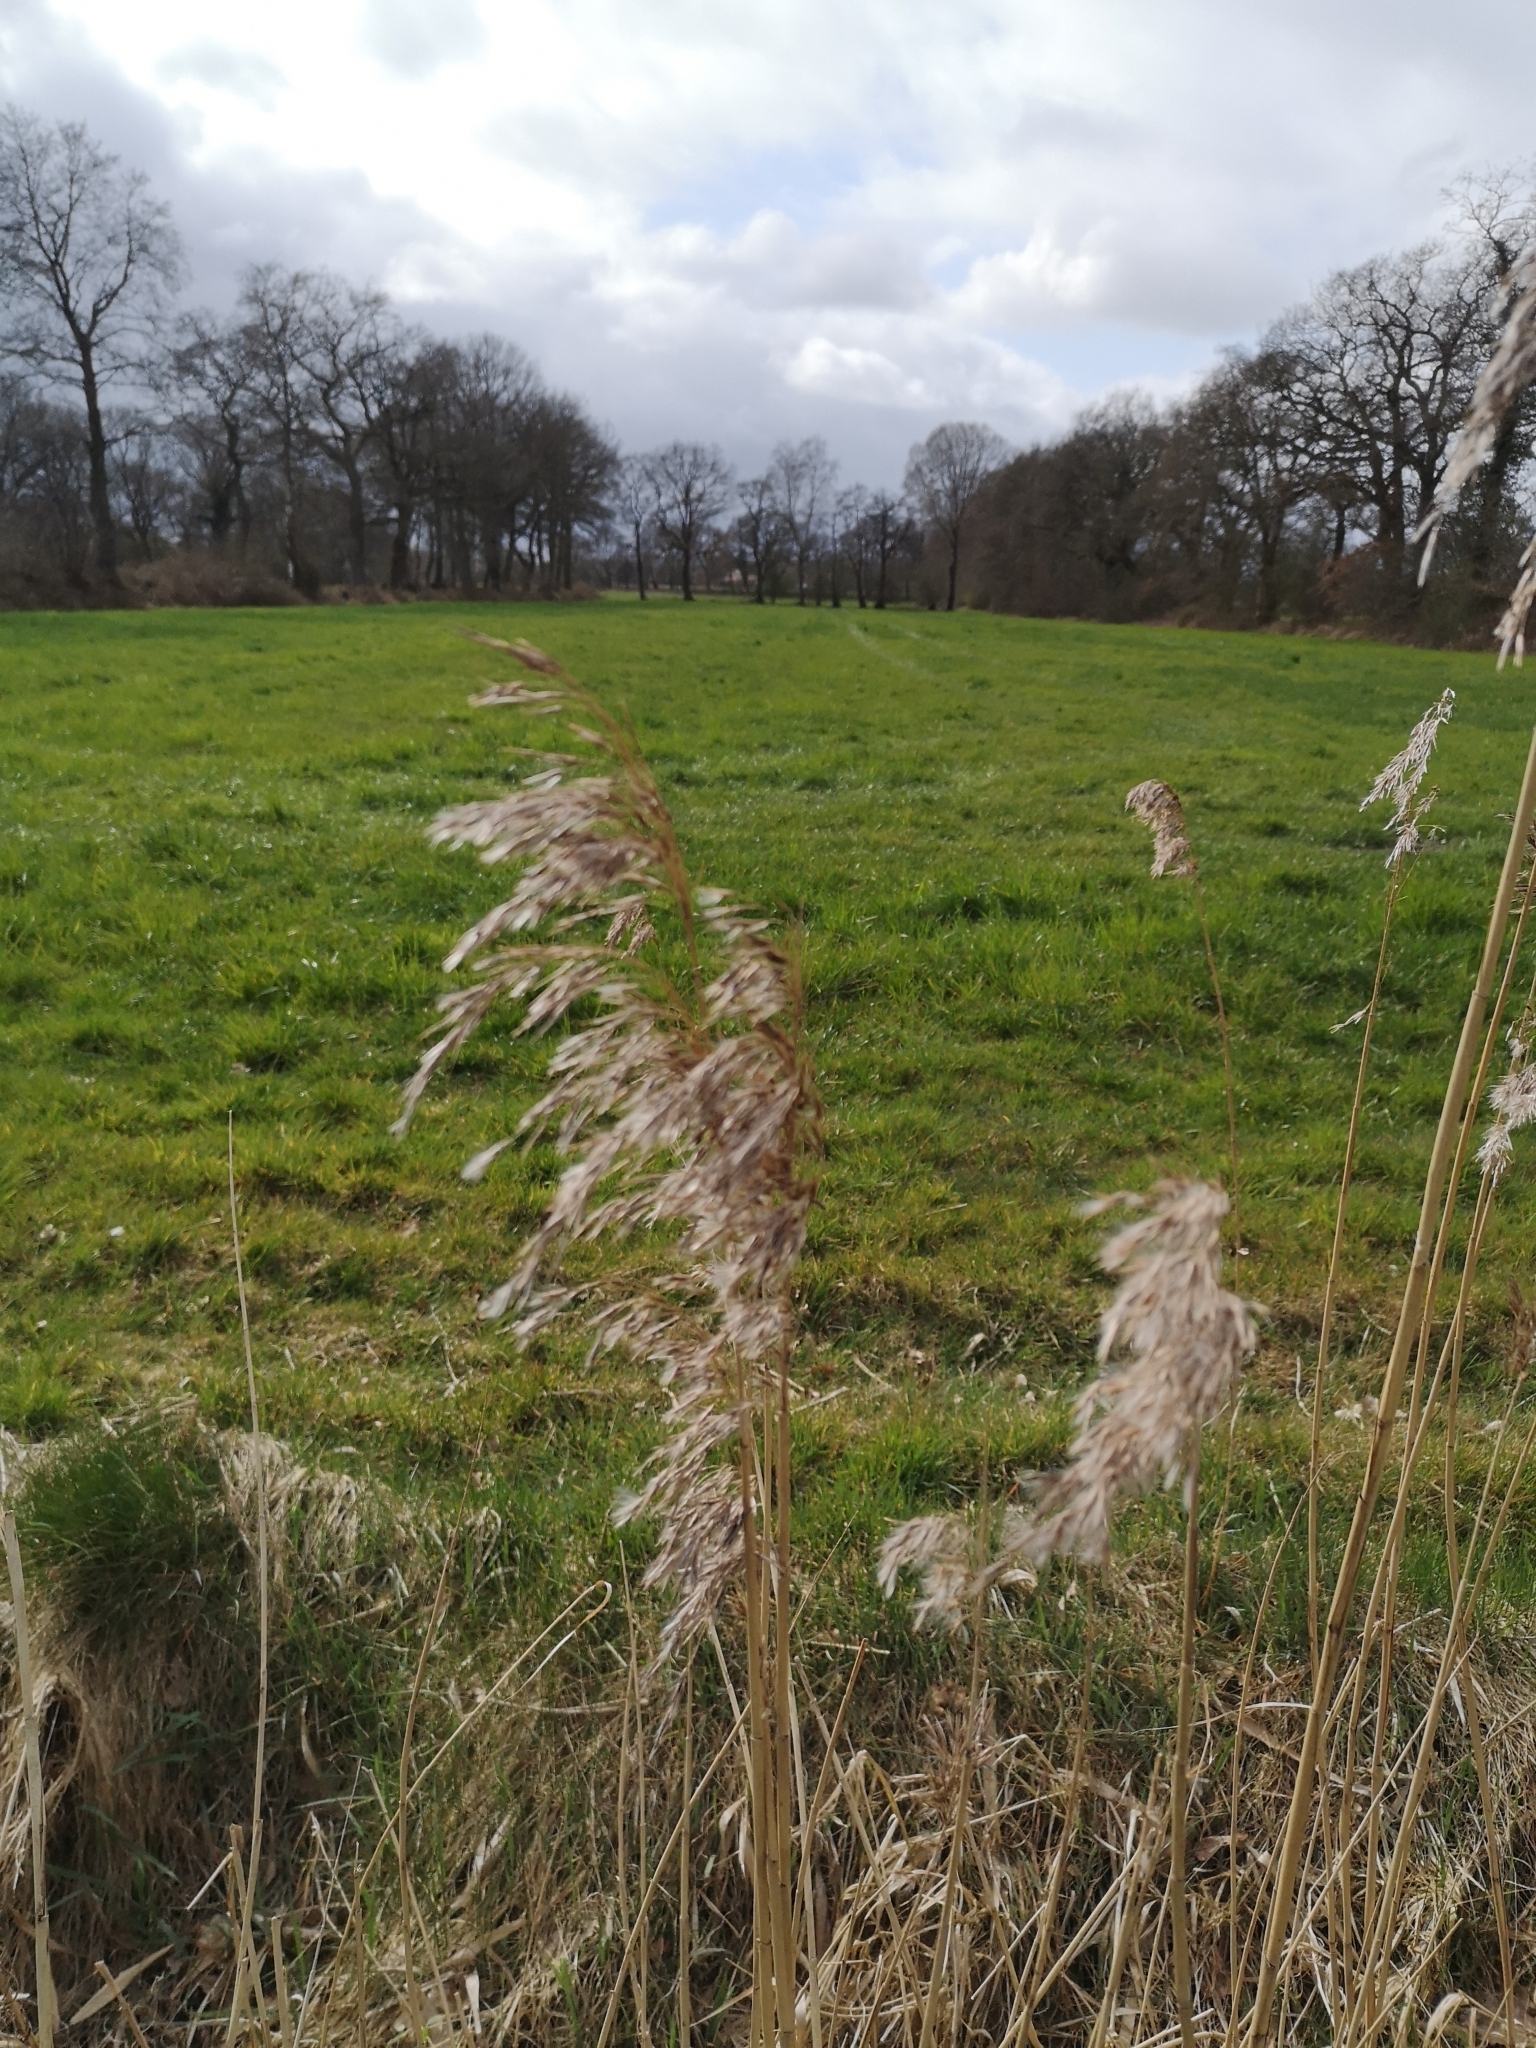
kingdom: Plantae
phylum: Tracheophyta
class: Liliopsida
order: Poales
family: Poaceae
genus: Phragmites
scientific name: Phragmites australis
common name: Common reed
